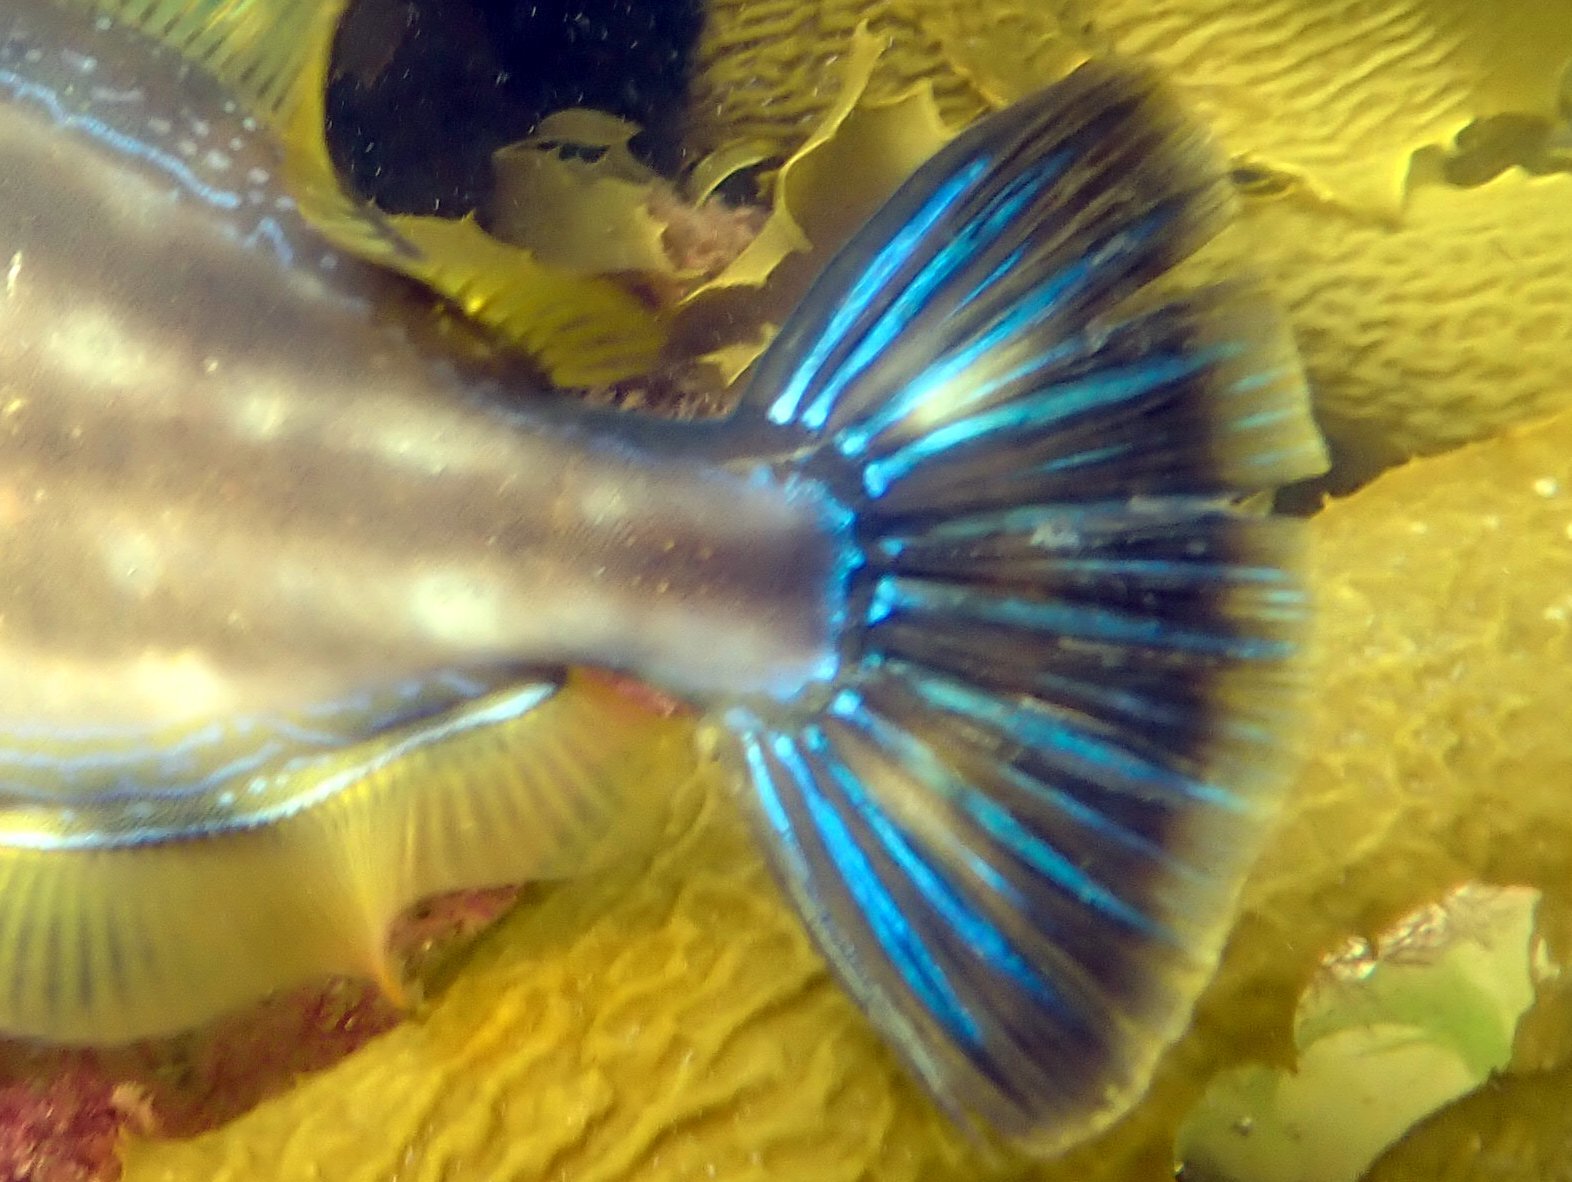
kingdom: Animalia
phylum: Chordata
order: Tetraodontiformes
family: Monacanthidae
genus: Meuschenia
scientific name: Meuschenia freycineti
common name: Freycinet's leatherjacket
